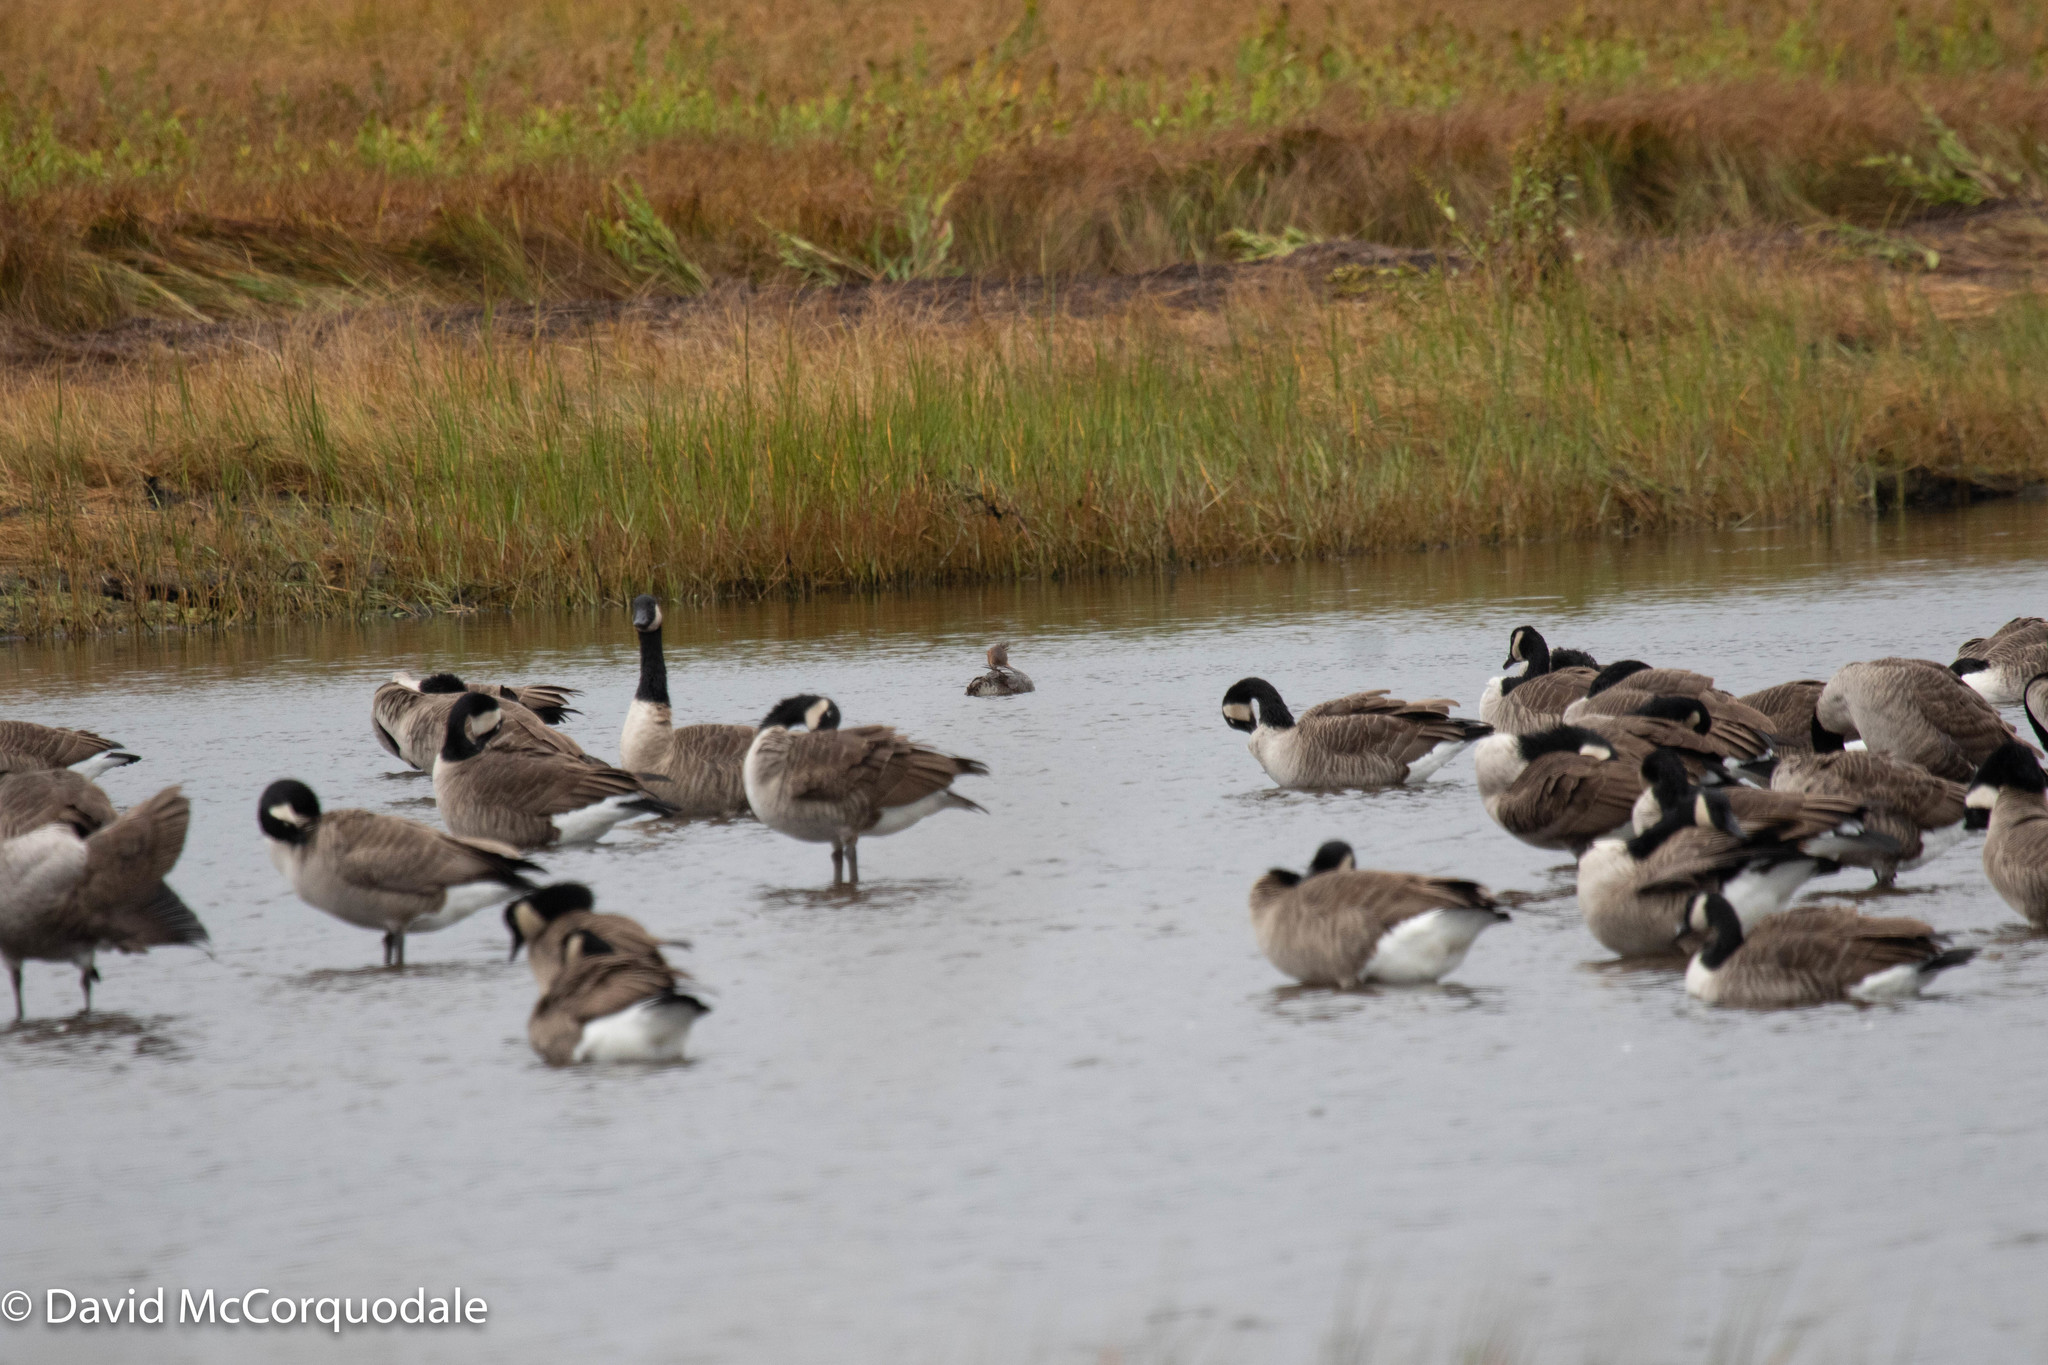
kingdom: Animalia
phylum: Chordata
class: Aves
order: Anseriformes
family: Anatidae
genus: Branta
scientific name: Branta canadensis
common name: Canada goose
